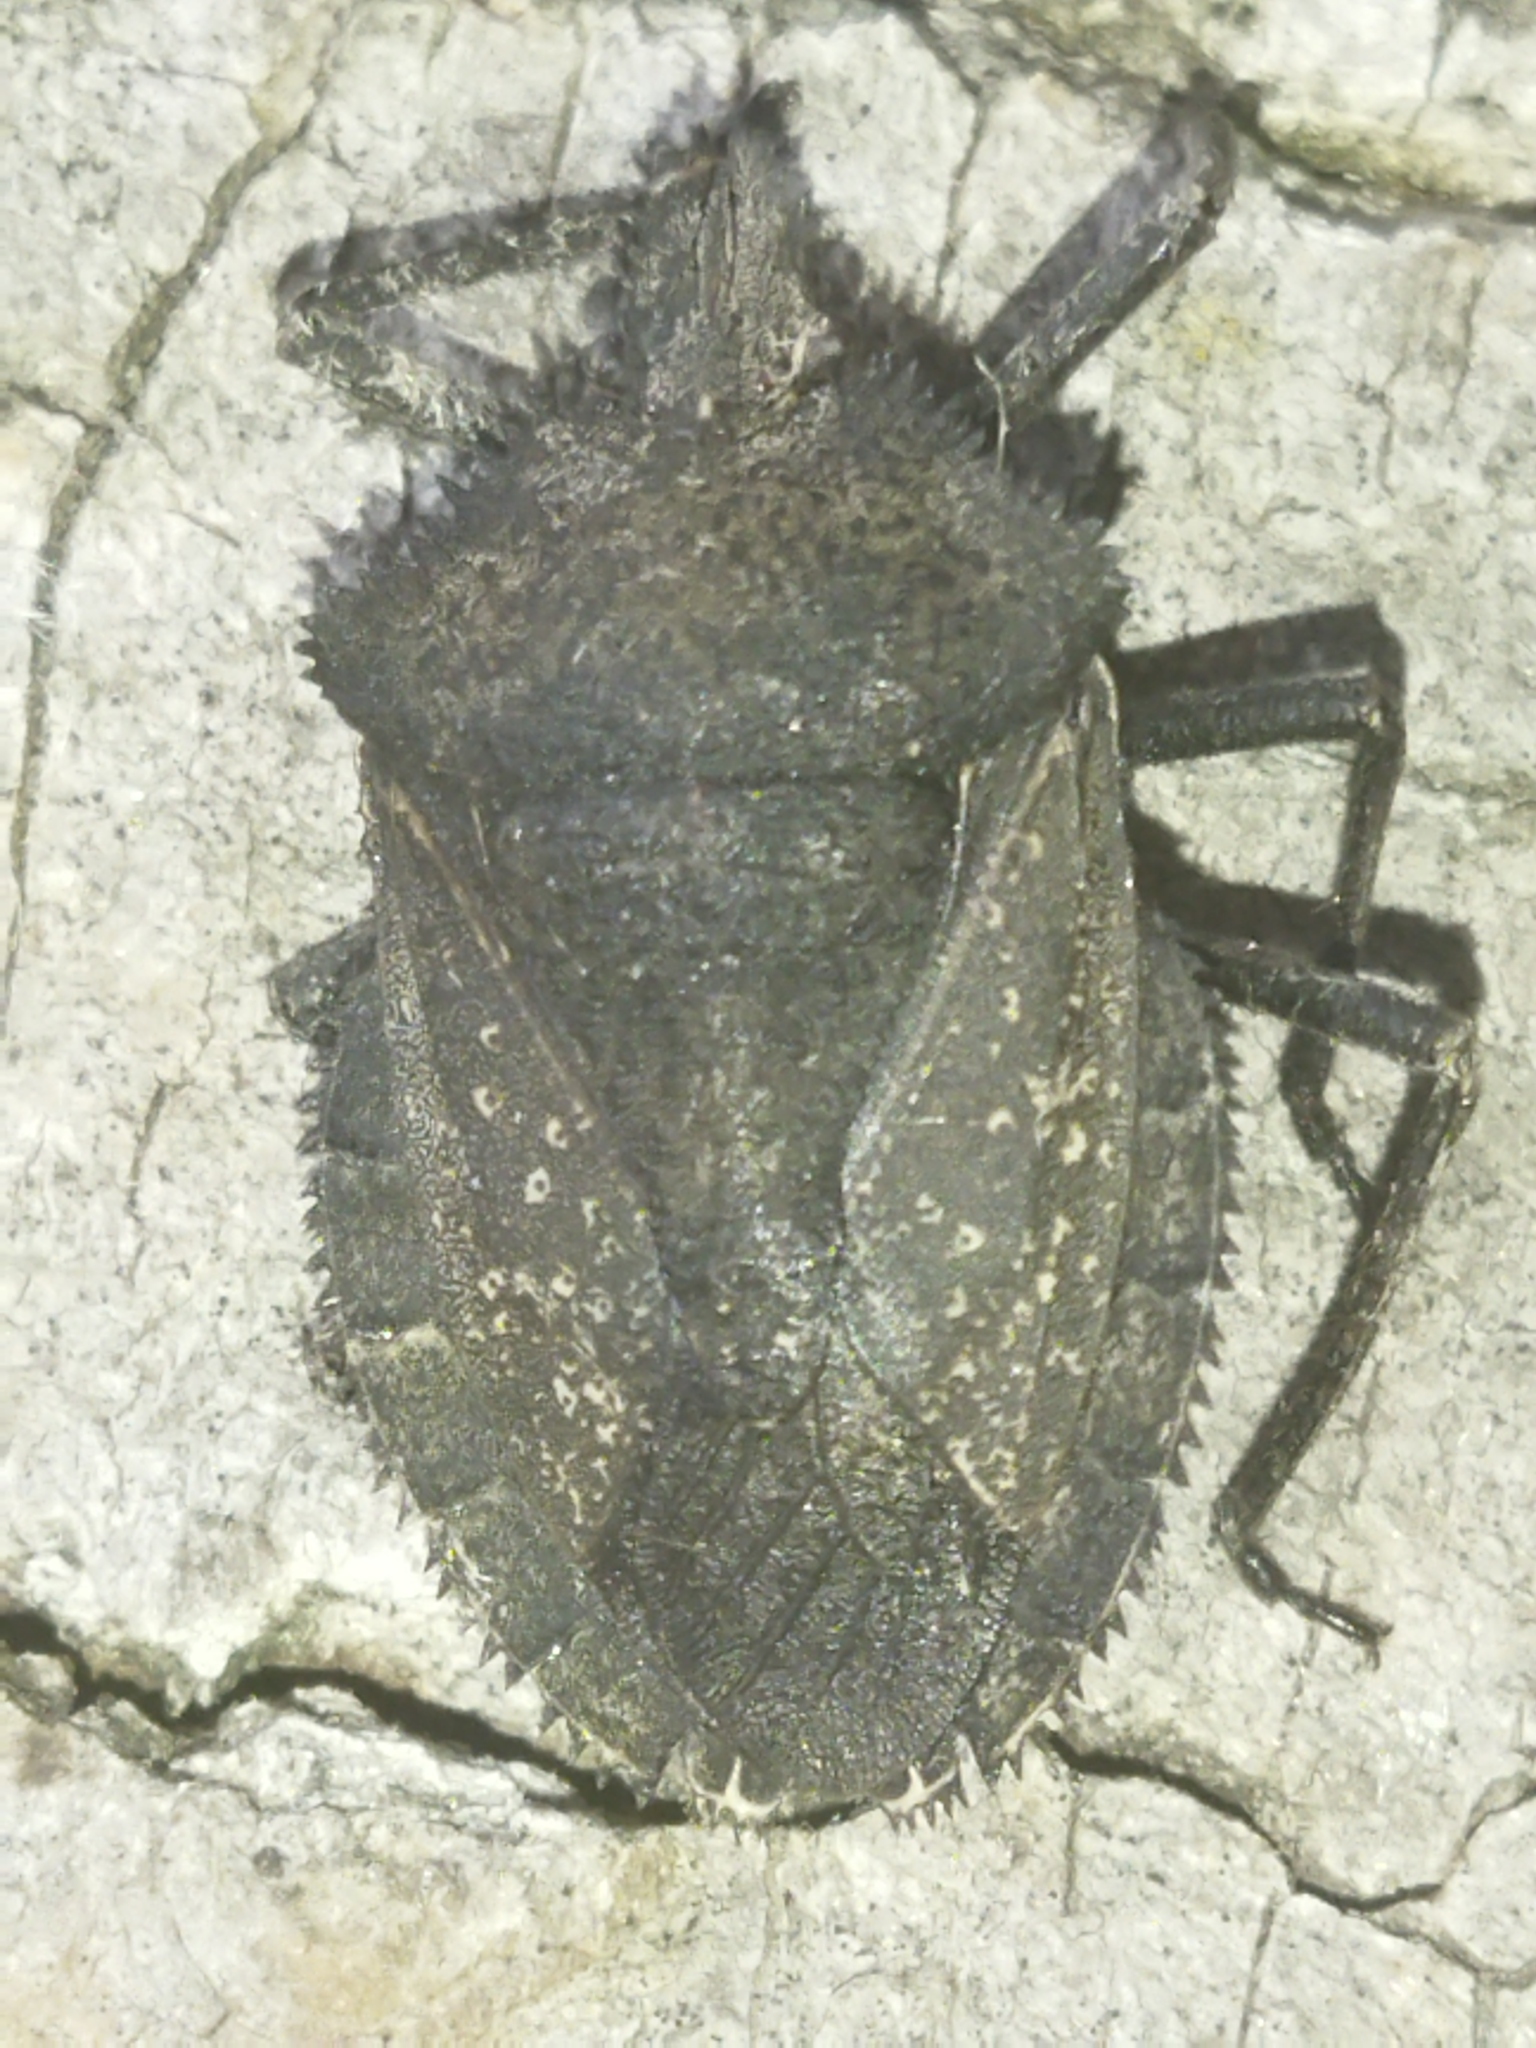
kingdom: Animalia
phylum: Arthropoda
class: Insecta
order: Hemiptera
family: Pentatomidae
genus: Mustha
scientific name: Mustha spinosula
